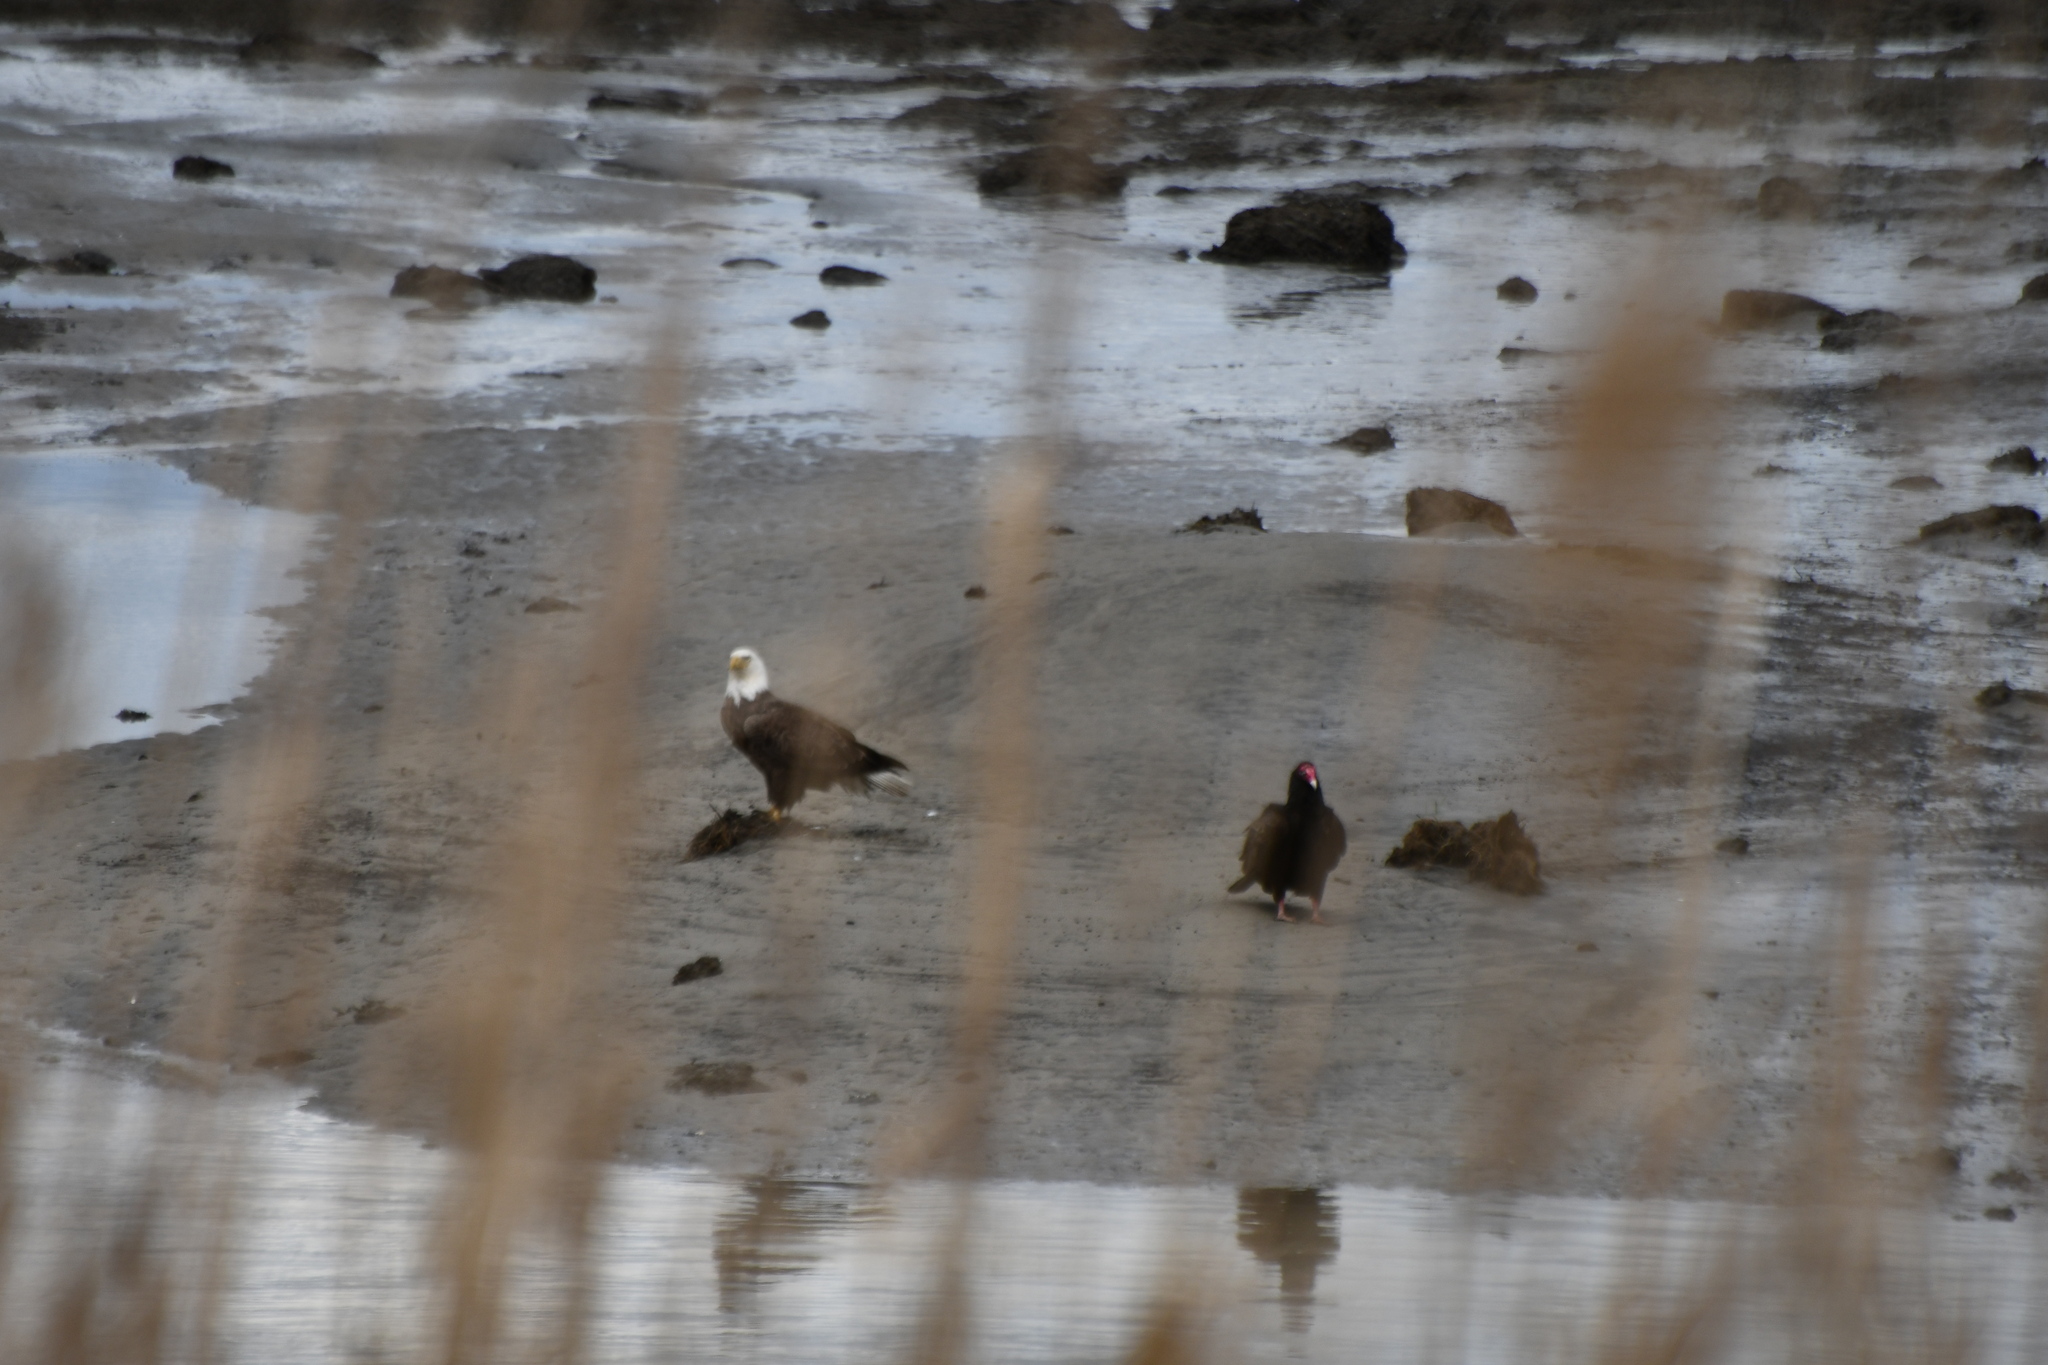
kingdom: Animalia
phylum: Chordata
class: Aves
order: Accipitriformes
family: Accipitridae
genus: Haliaeetus
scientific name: Haliaeetus leucocephalus
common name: Bald eagle
